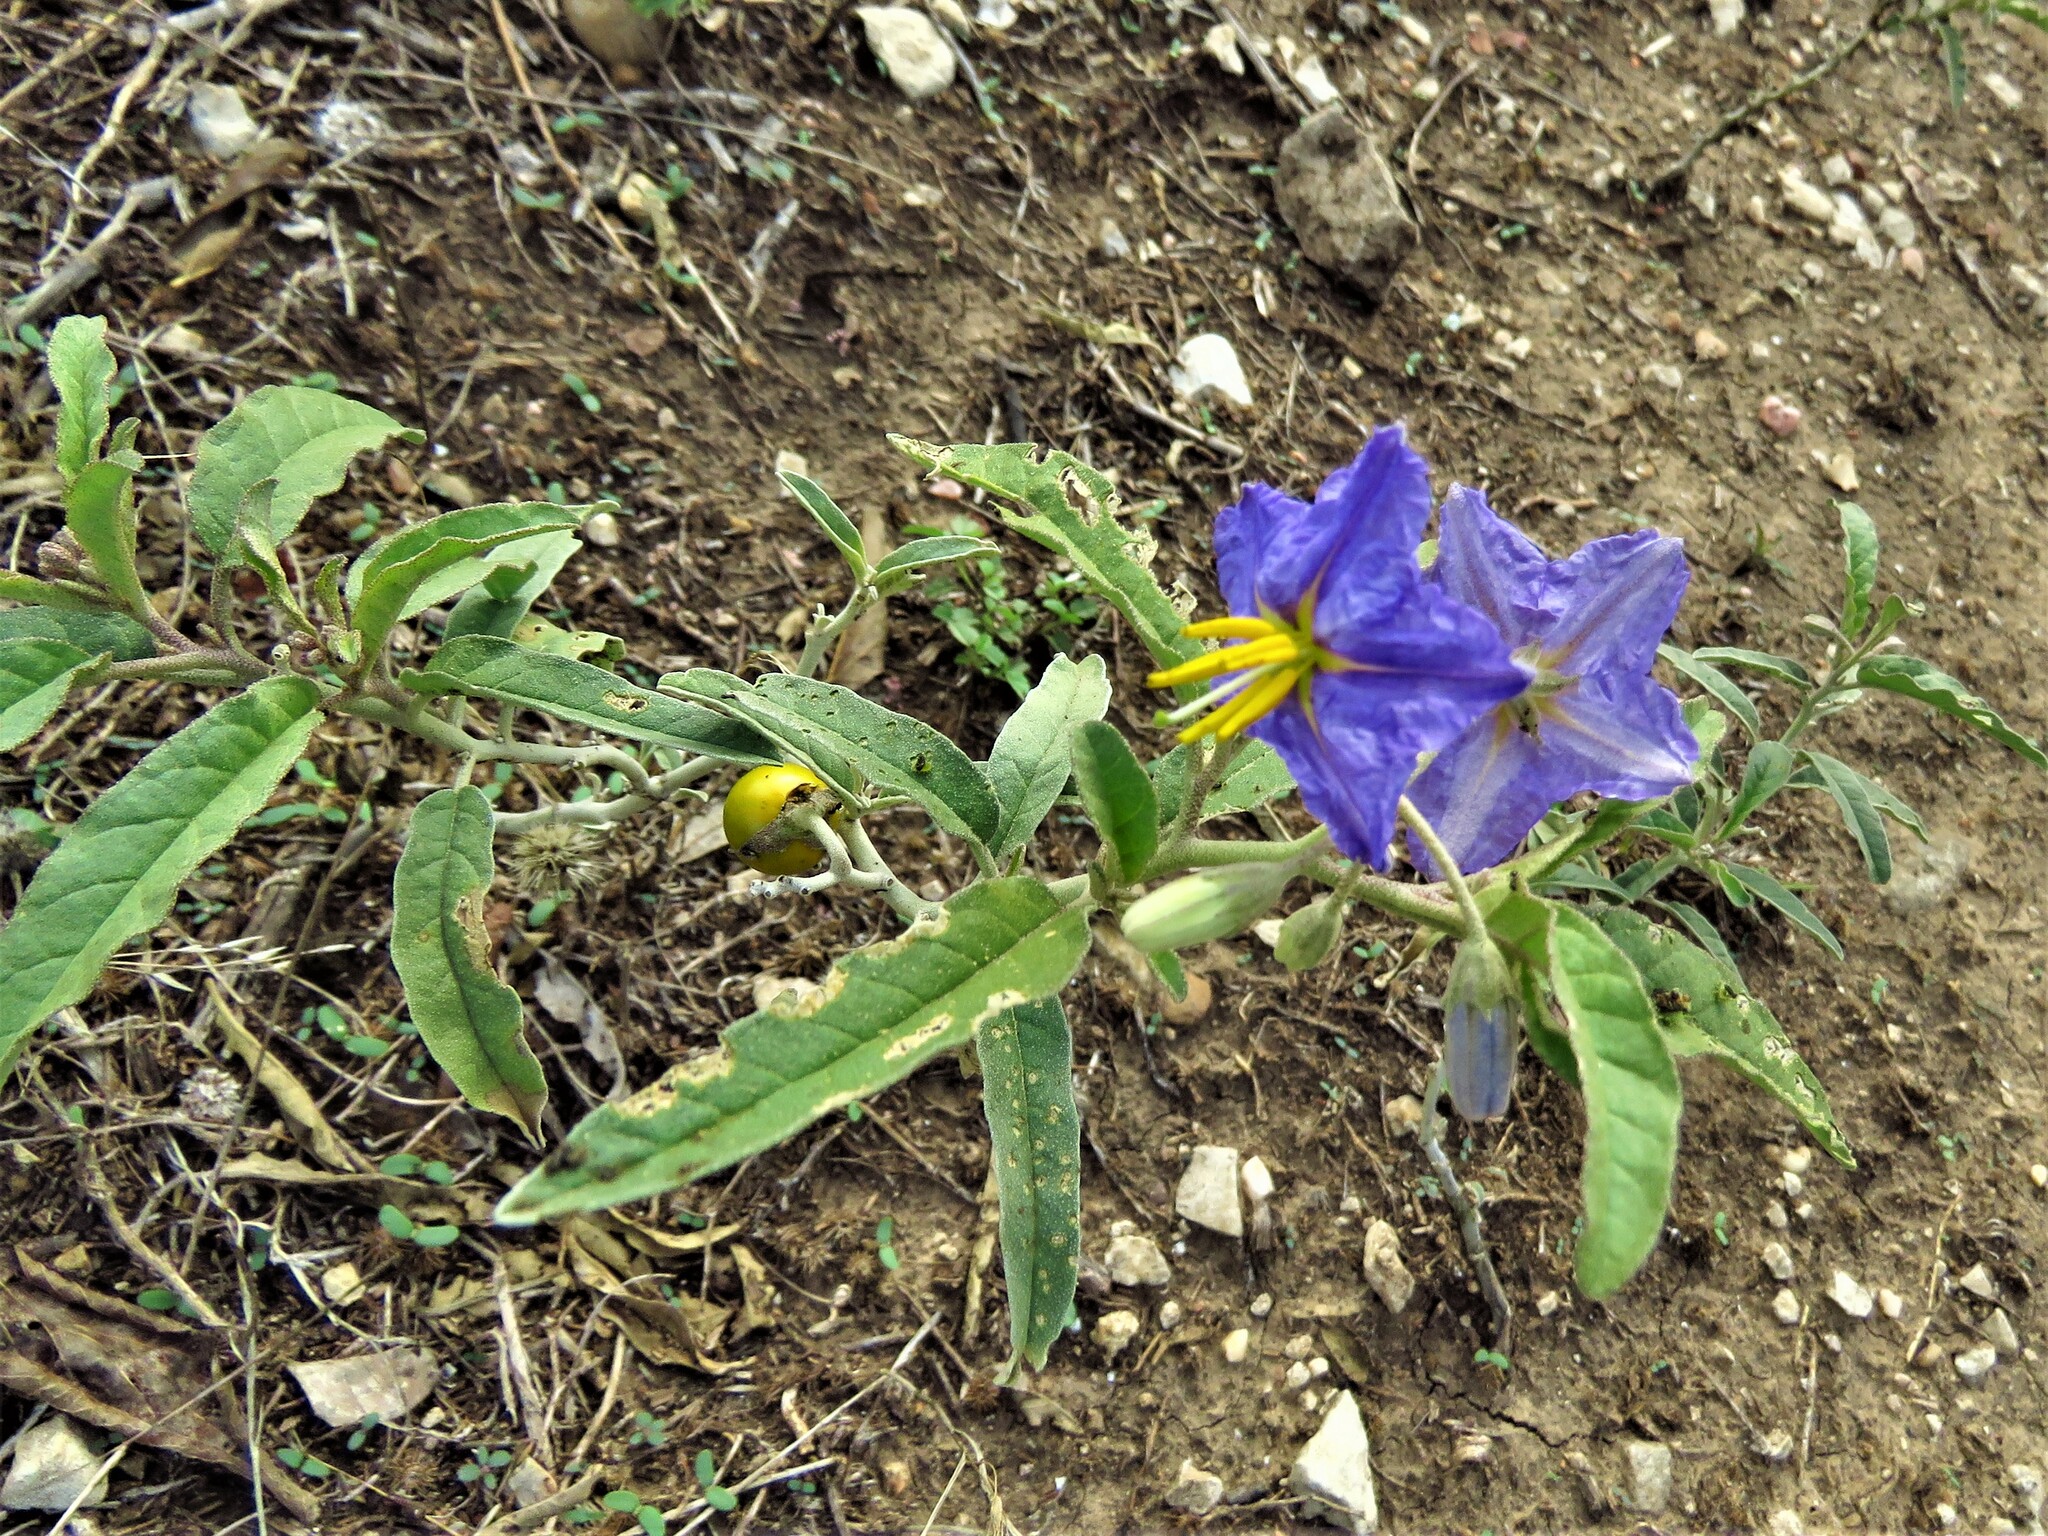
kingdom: Plantae
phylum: Tracheophyta
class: Magnoliopsida
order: Solanales
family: Solanaceae
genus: Solanum
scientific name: Solanum elaeagnifolium
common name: Silverleaf nightshade
